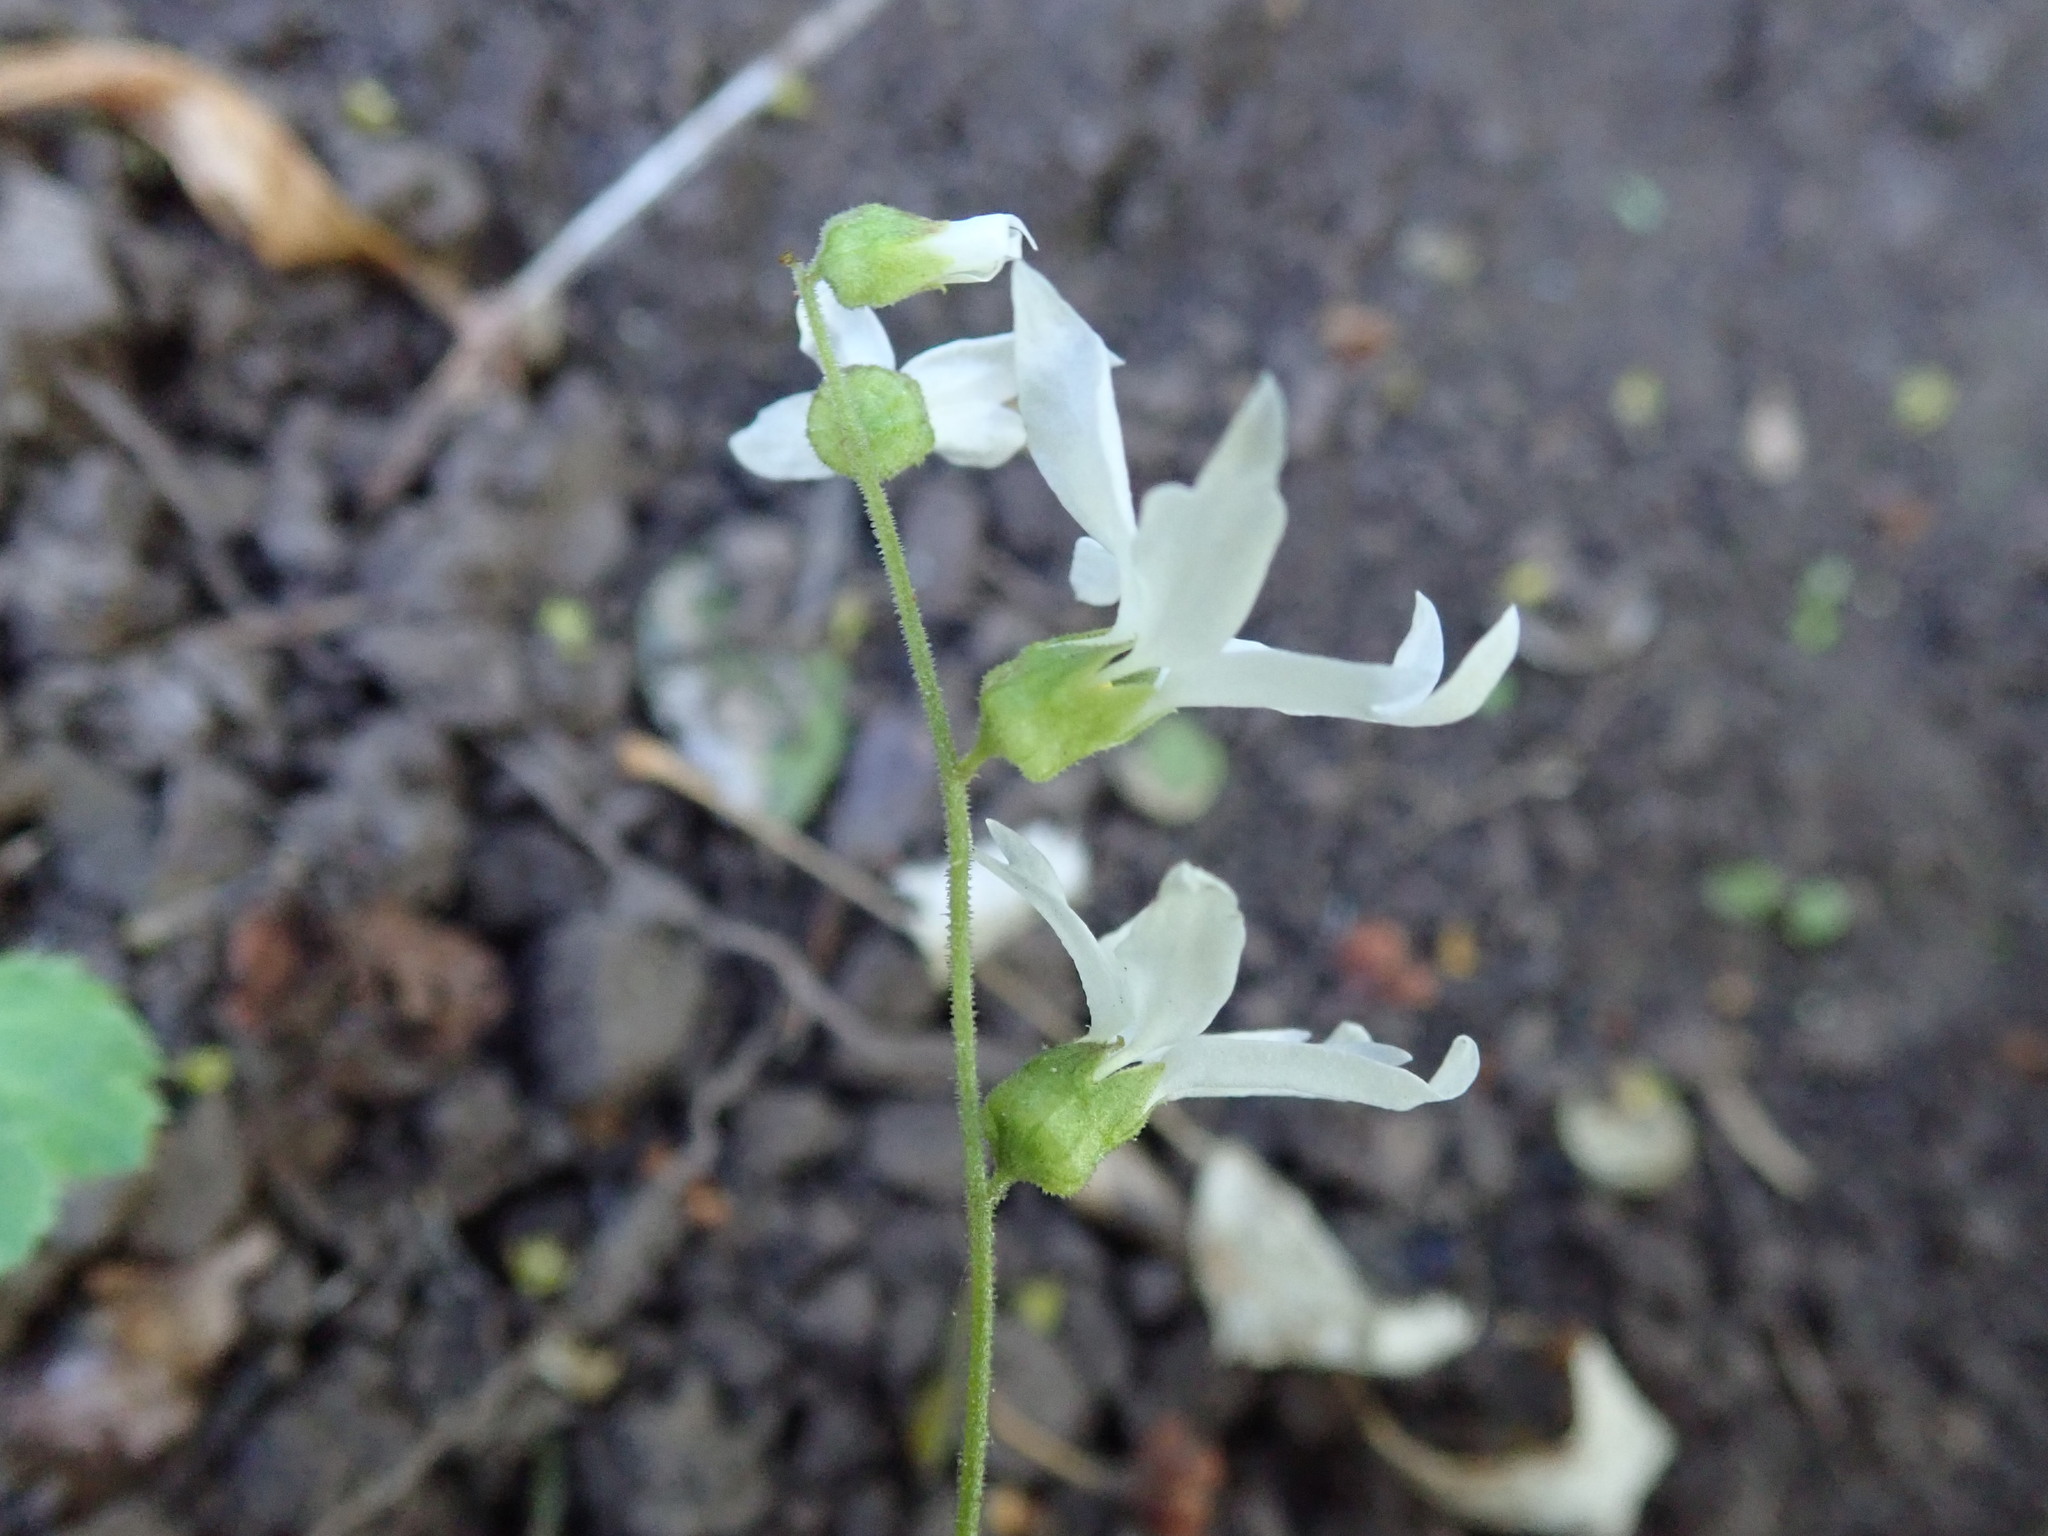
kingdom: Plantae
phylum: Tracheophyta
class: Magnoliopsida
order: Saxifragales
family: Saxifragaceae
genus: Lithophragma
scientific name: Lithophragma heterophyllum
